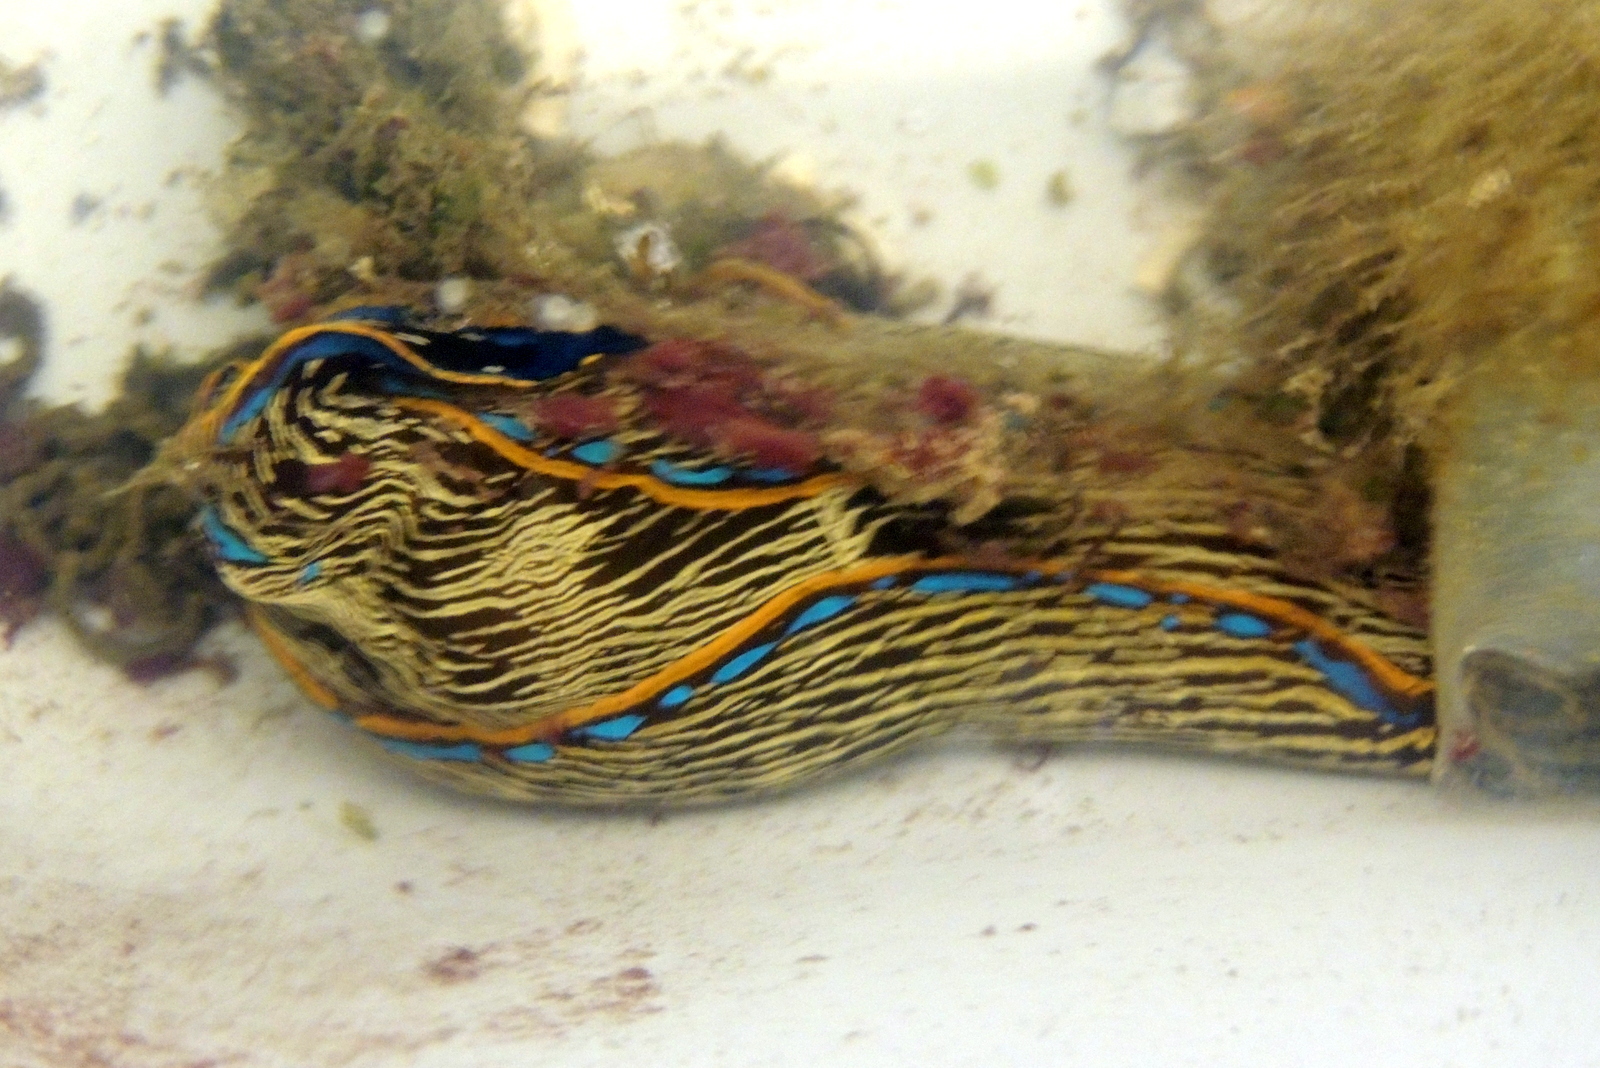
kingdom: Animalia
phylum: Mollusca
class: Gastropoda
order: Cephalaspidea
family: Aglajidae
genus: Navanax
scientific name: Navanax inermis
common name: California aglaja
